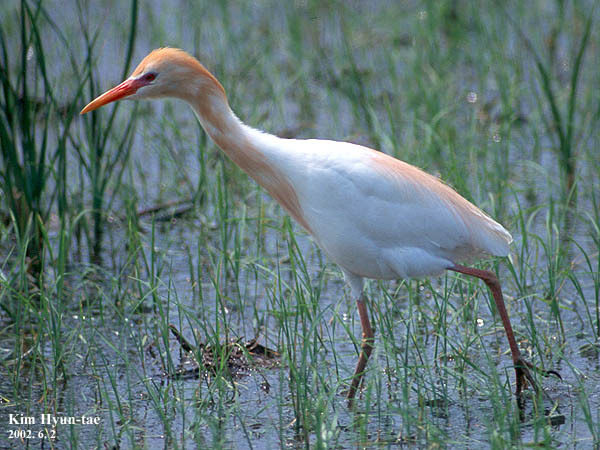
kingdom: Animalia
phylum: Chordata
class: Aves
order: Pelecaniformes
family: Ardeidae
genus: Bubulcus
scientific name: Bubulcus coromandus
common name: Eastern cattle egret
